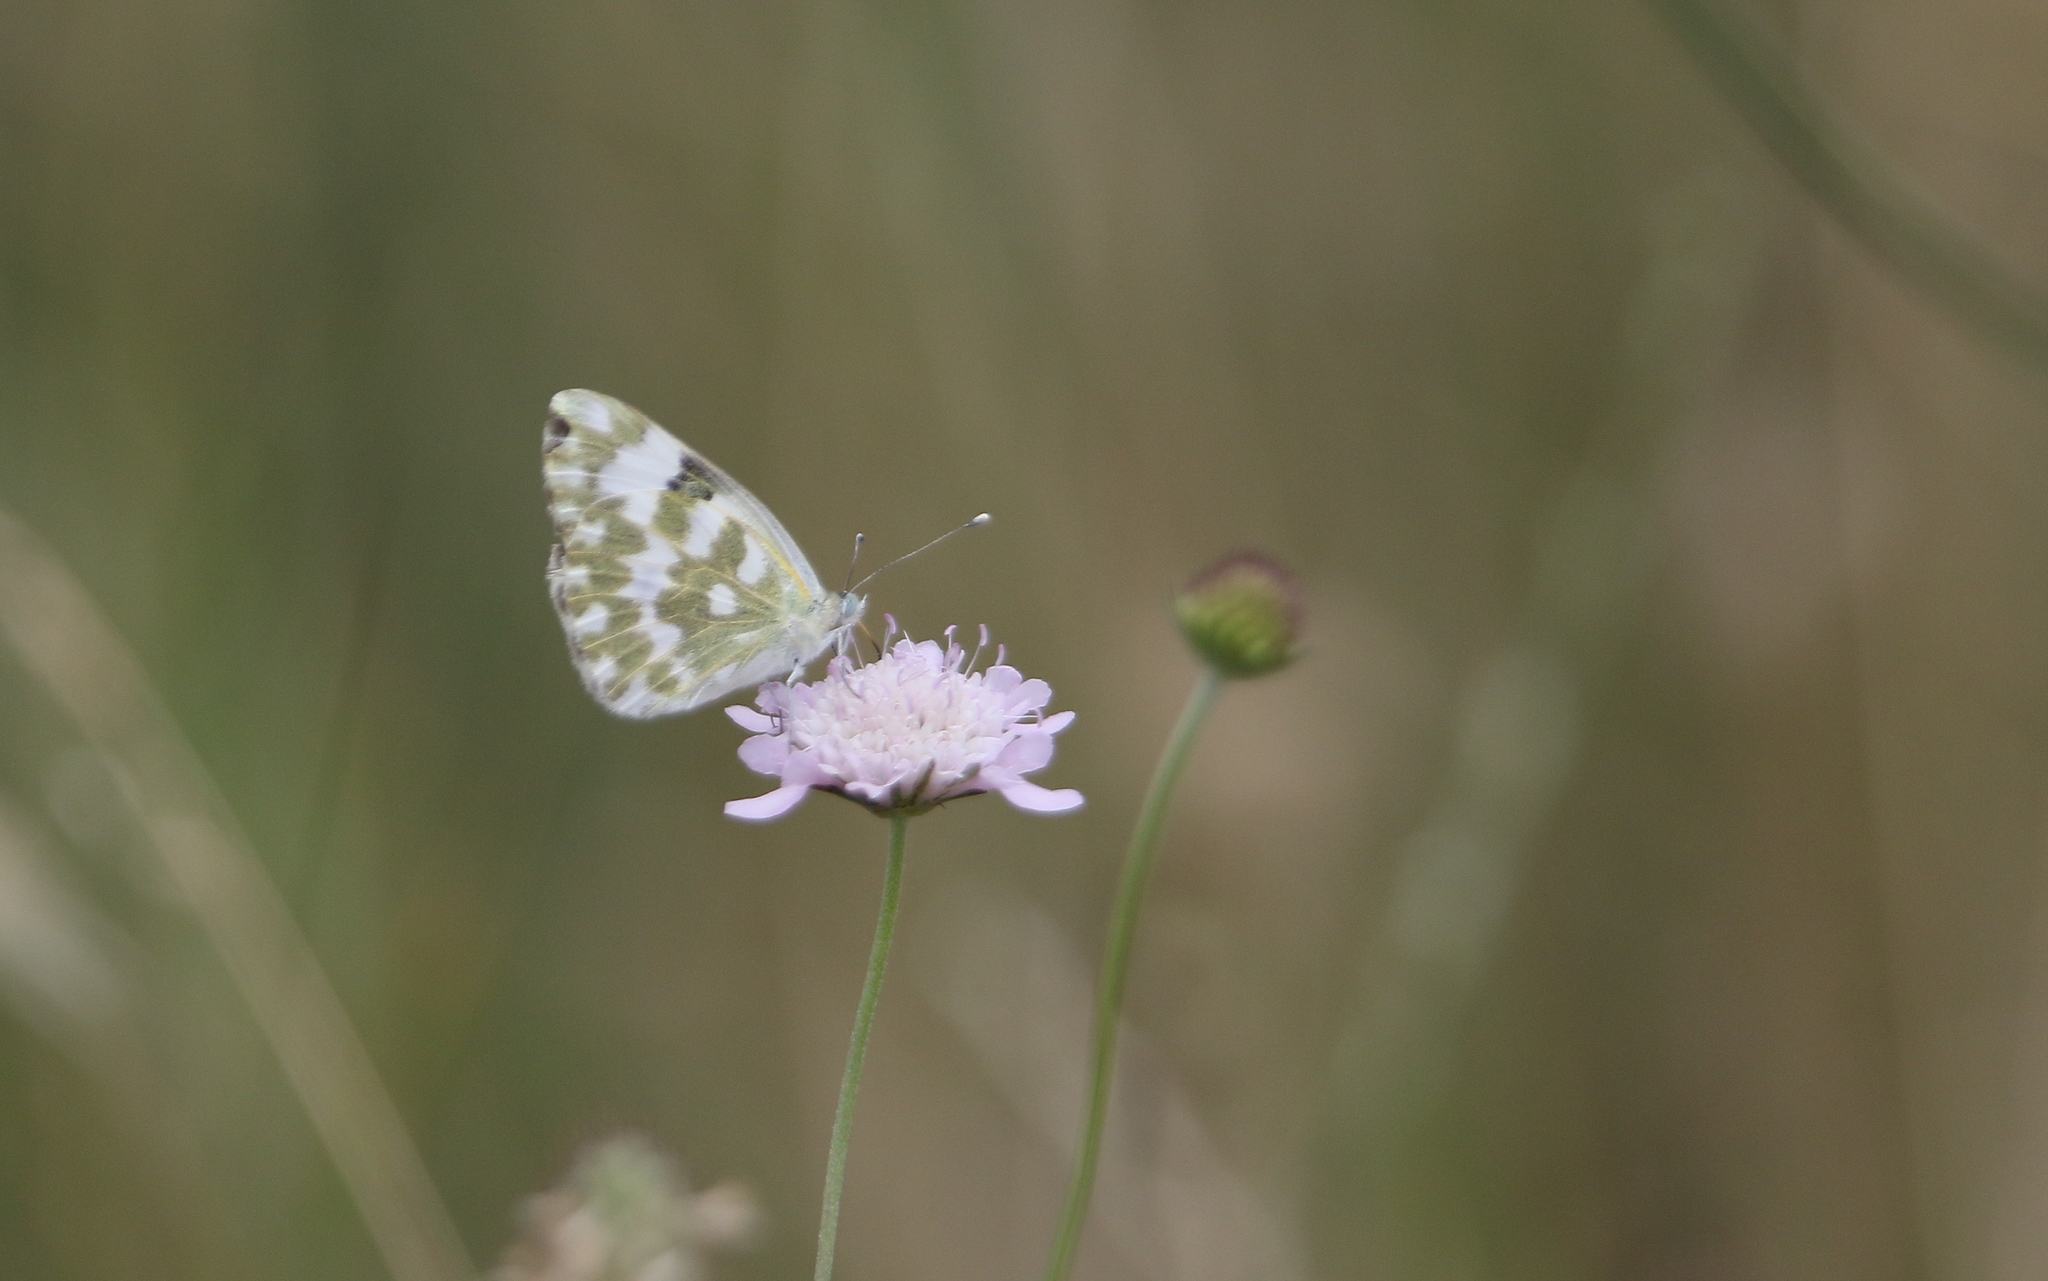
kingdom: Animalia
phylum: Arthropoda
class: Insecta
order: Lepidoptera
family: Pieridae
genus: Pontia
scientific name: Pontia edusa
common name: Eastern bath white
